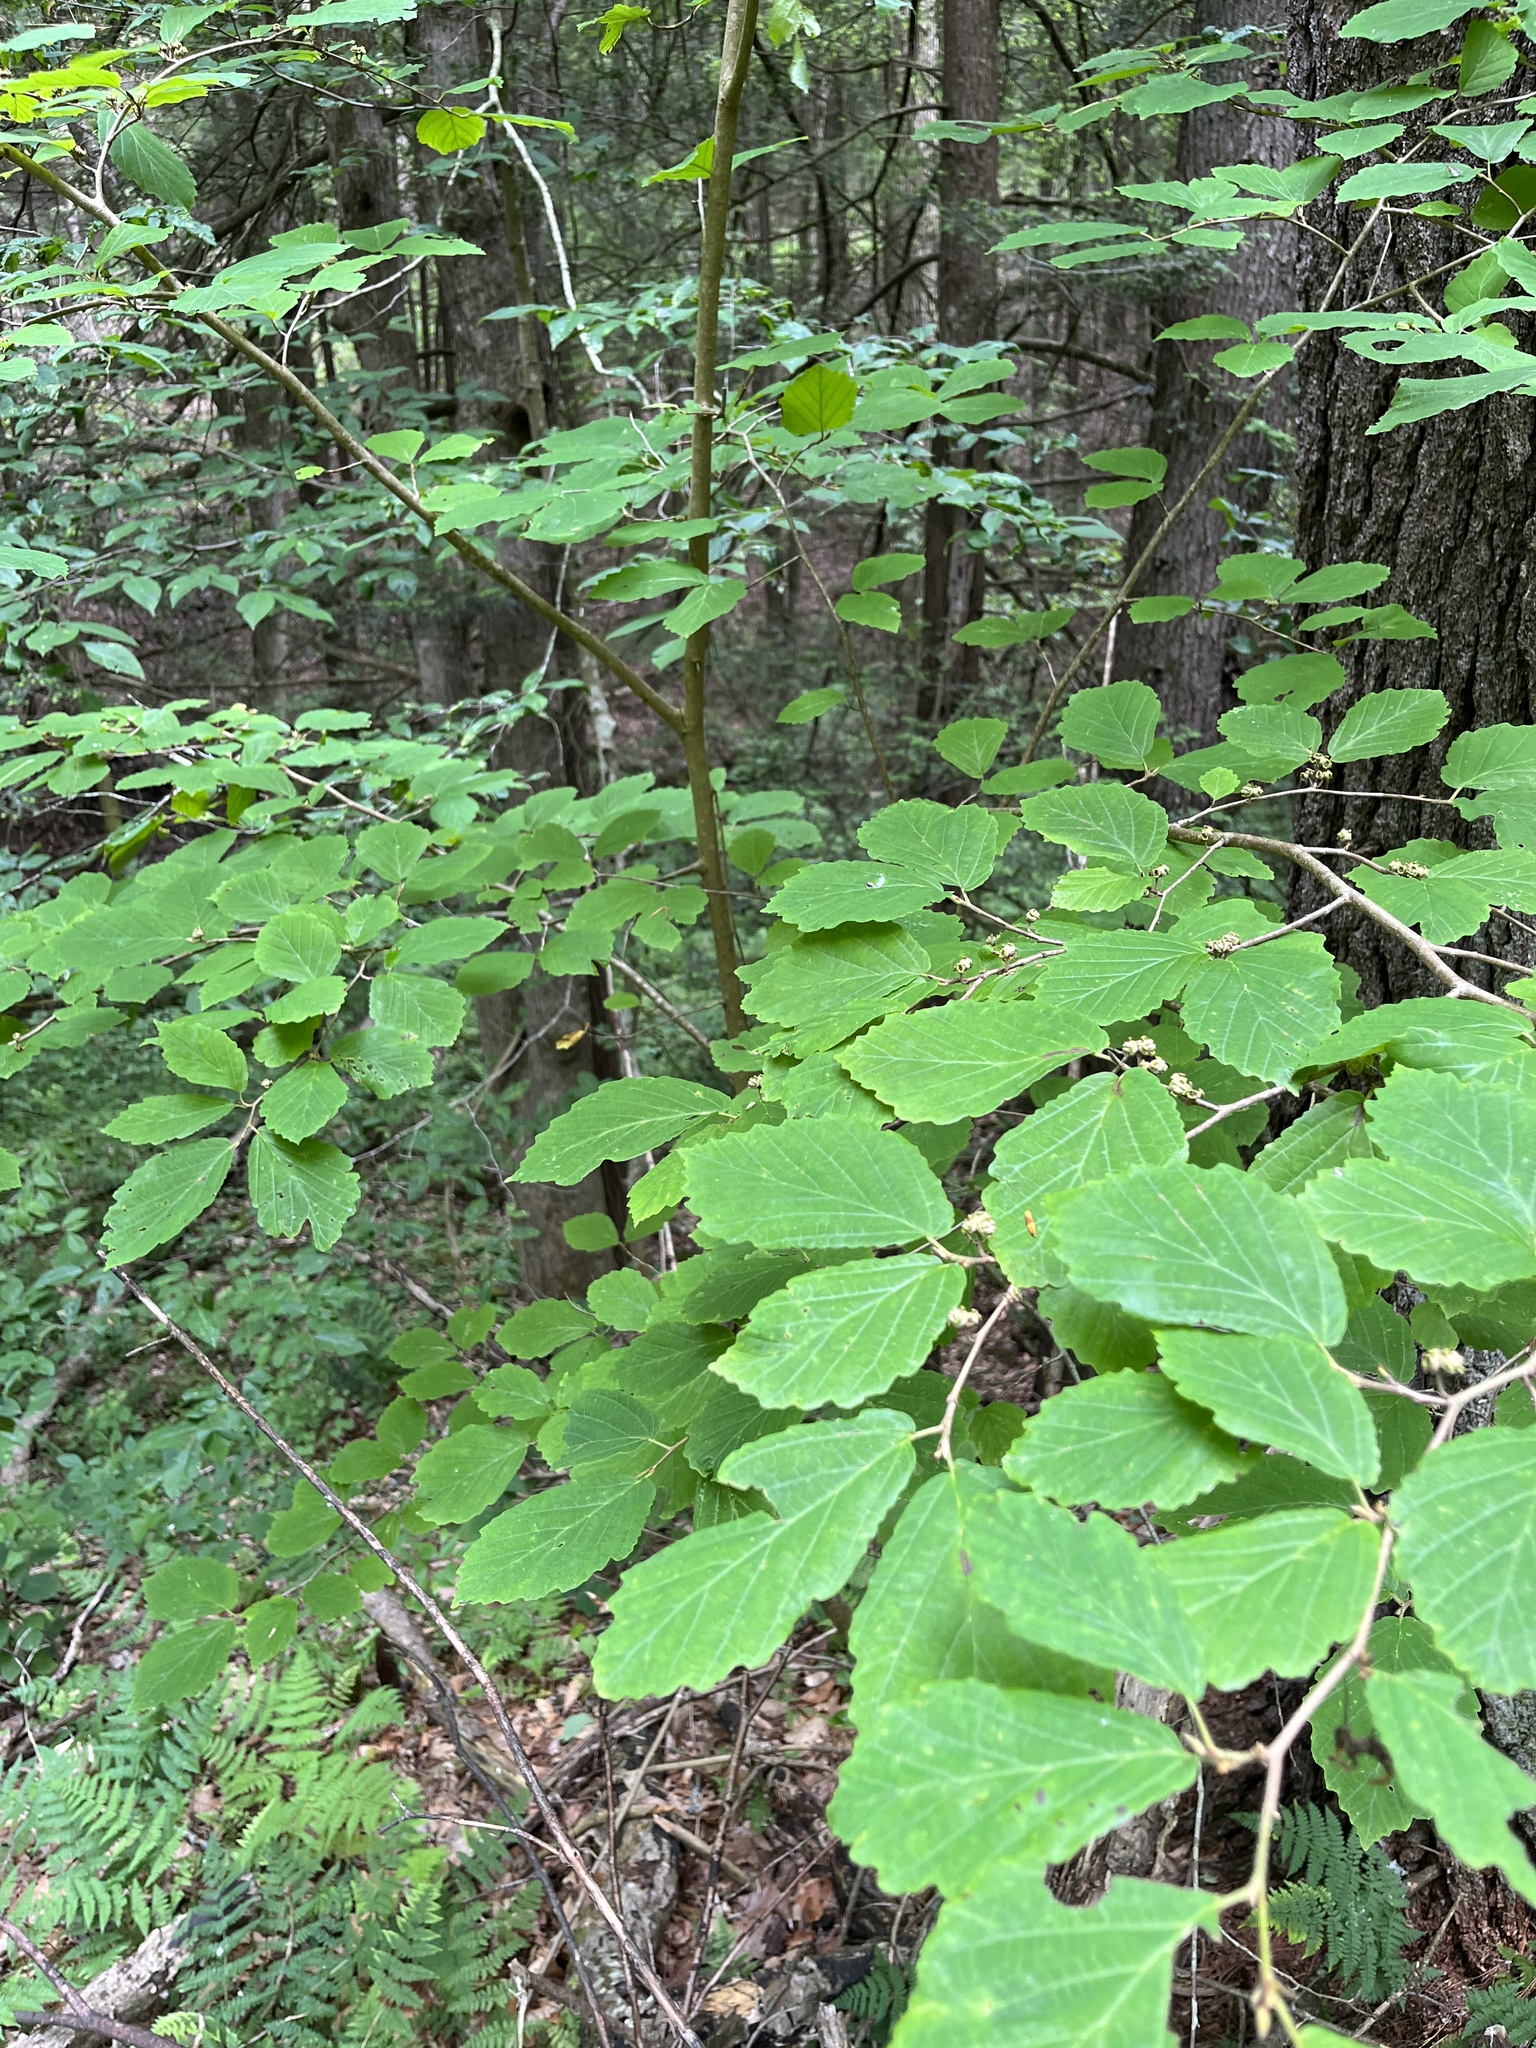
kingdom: Plantae
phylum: Tracheophyta
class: Magnoliopsida
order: Saxifragales
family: Hamamelidaceae
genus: Hamamelis
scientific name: Hamamelis virginiana
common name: Witch-hazel
